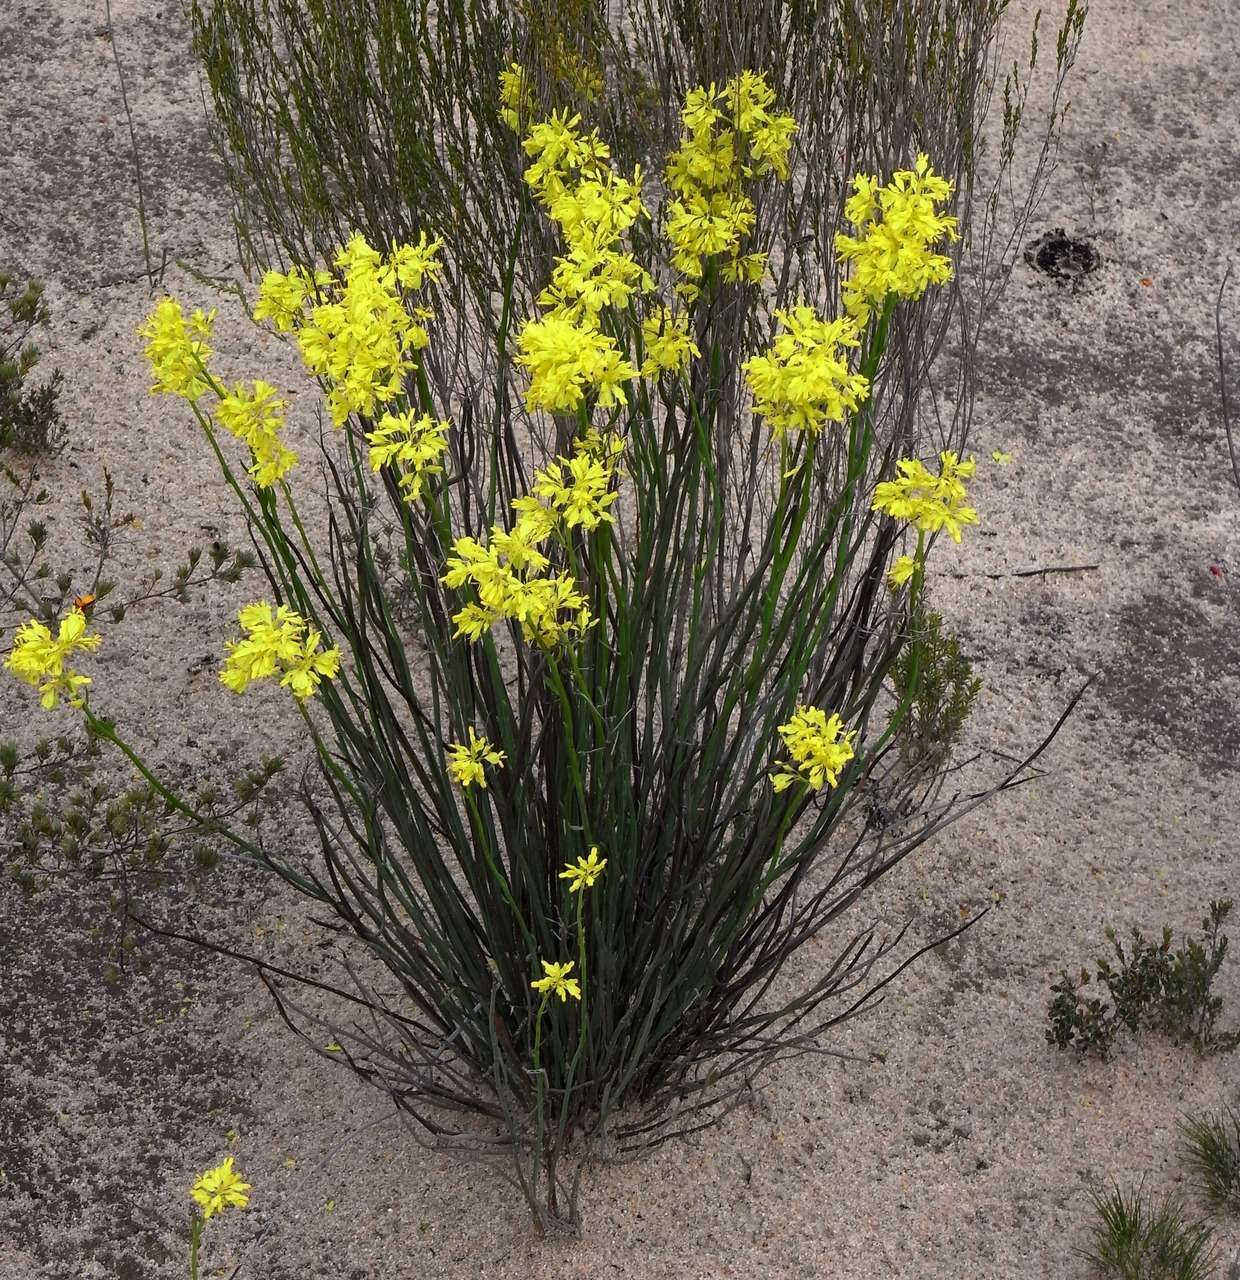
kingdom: Plantae
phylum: Tracheophyta
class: Magnoliopsida
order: Saxifragales
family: Haloragaceae
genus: Glischrocaryon
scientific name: Glischrocaryon behrii
